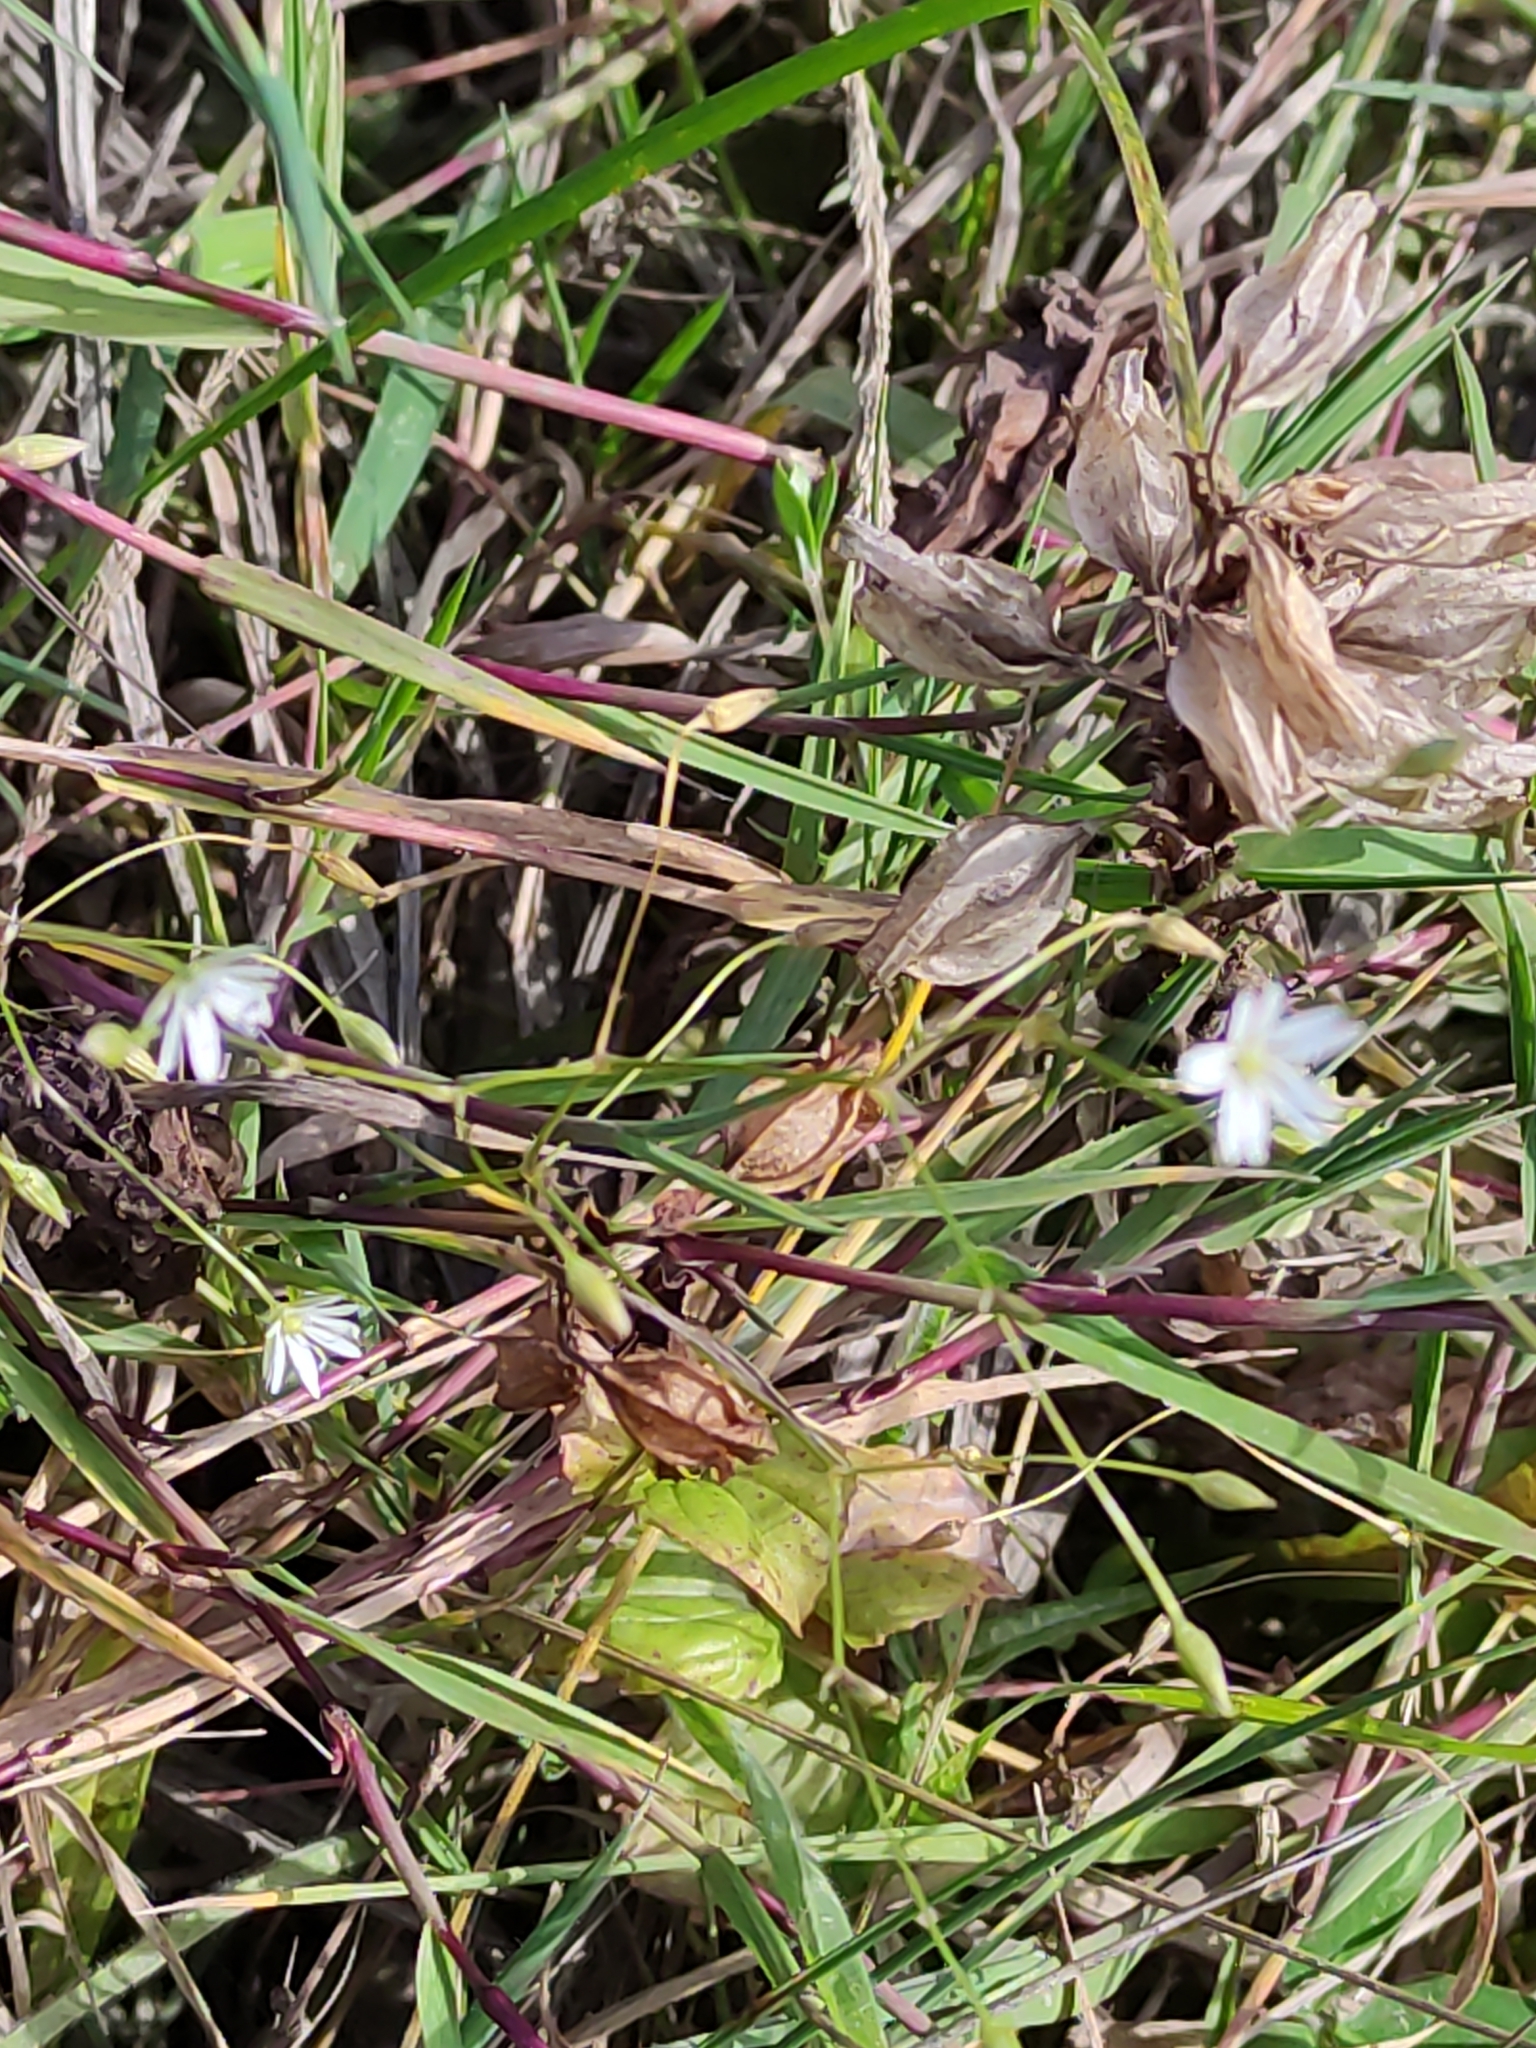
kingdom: Plantae
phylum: Tracheophyta
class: Magnoliopsida
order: Caryophyllales
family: Caryophyllaceae
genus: Stellaria
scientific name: Stellaria graminea
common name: Grass-like starwort
